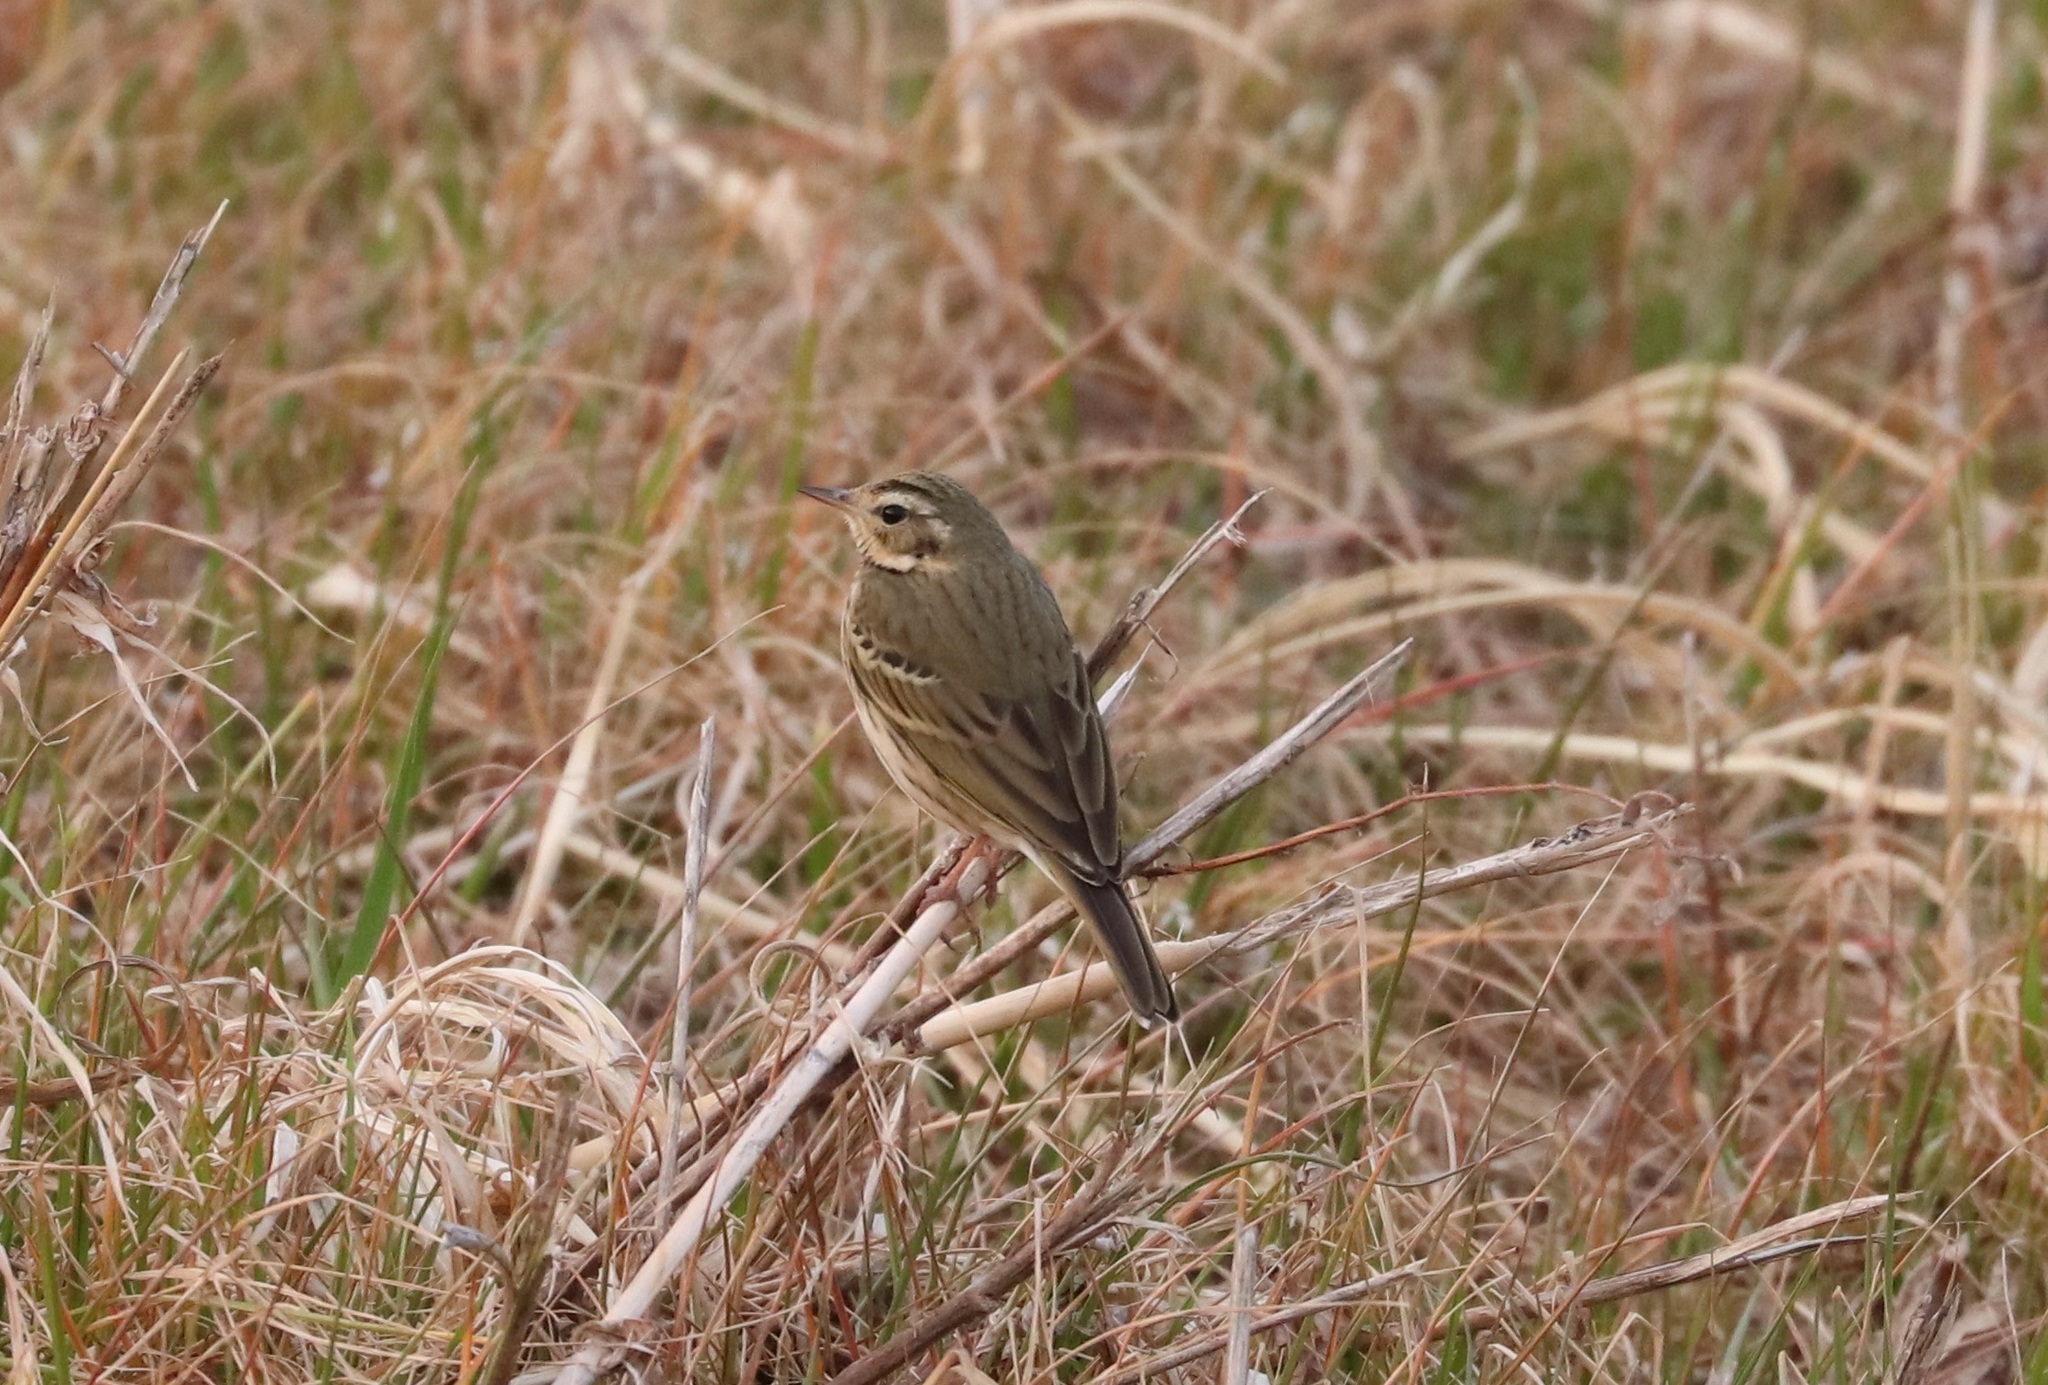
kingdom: Animalia
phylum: Chordata
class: Aves
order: Passeriformes
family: Motacillidae
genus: Anthus
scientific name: Anthus hodgsoni
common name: Olive-backed pipit
